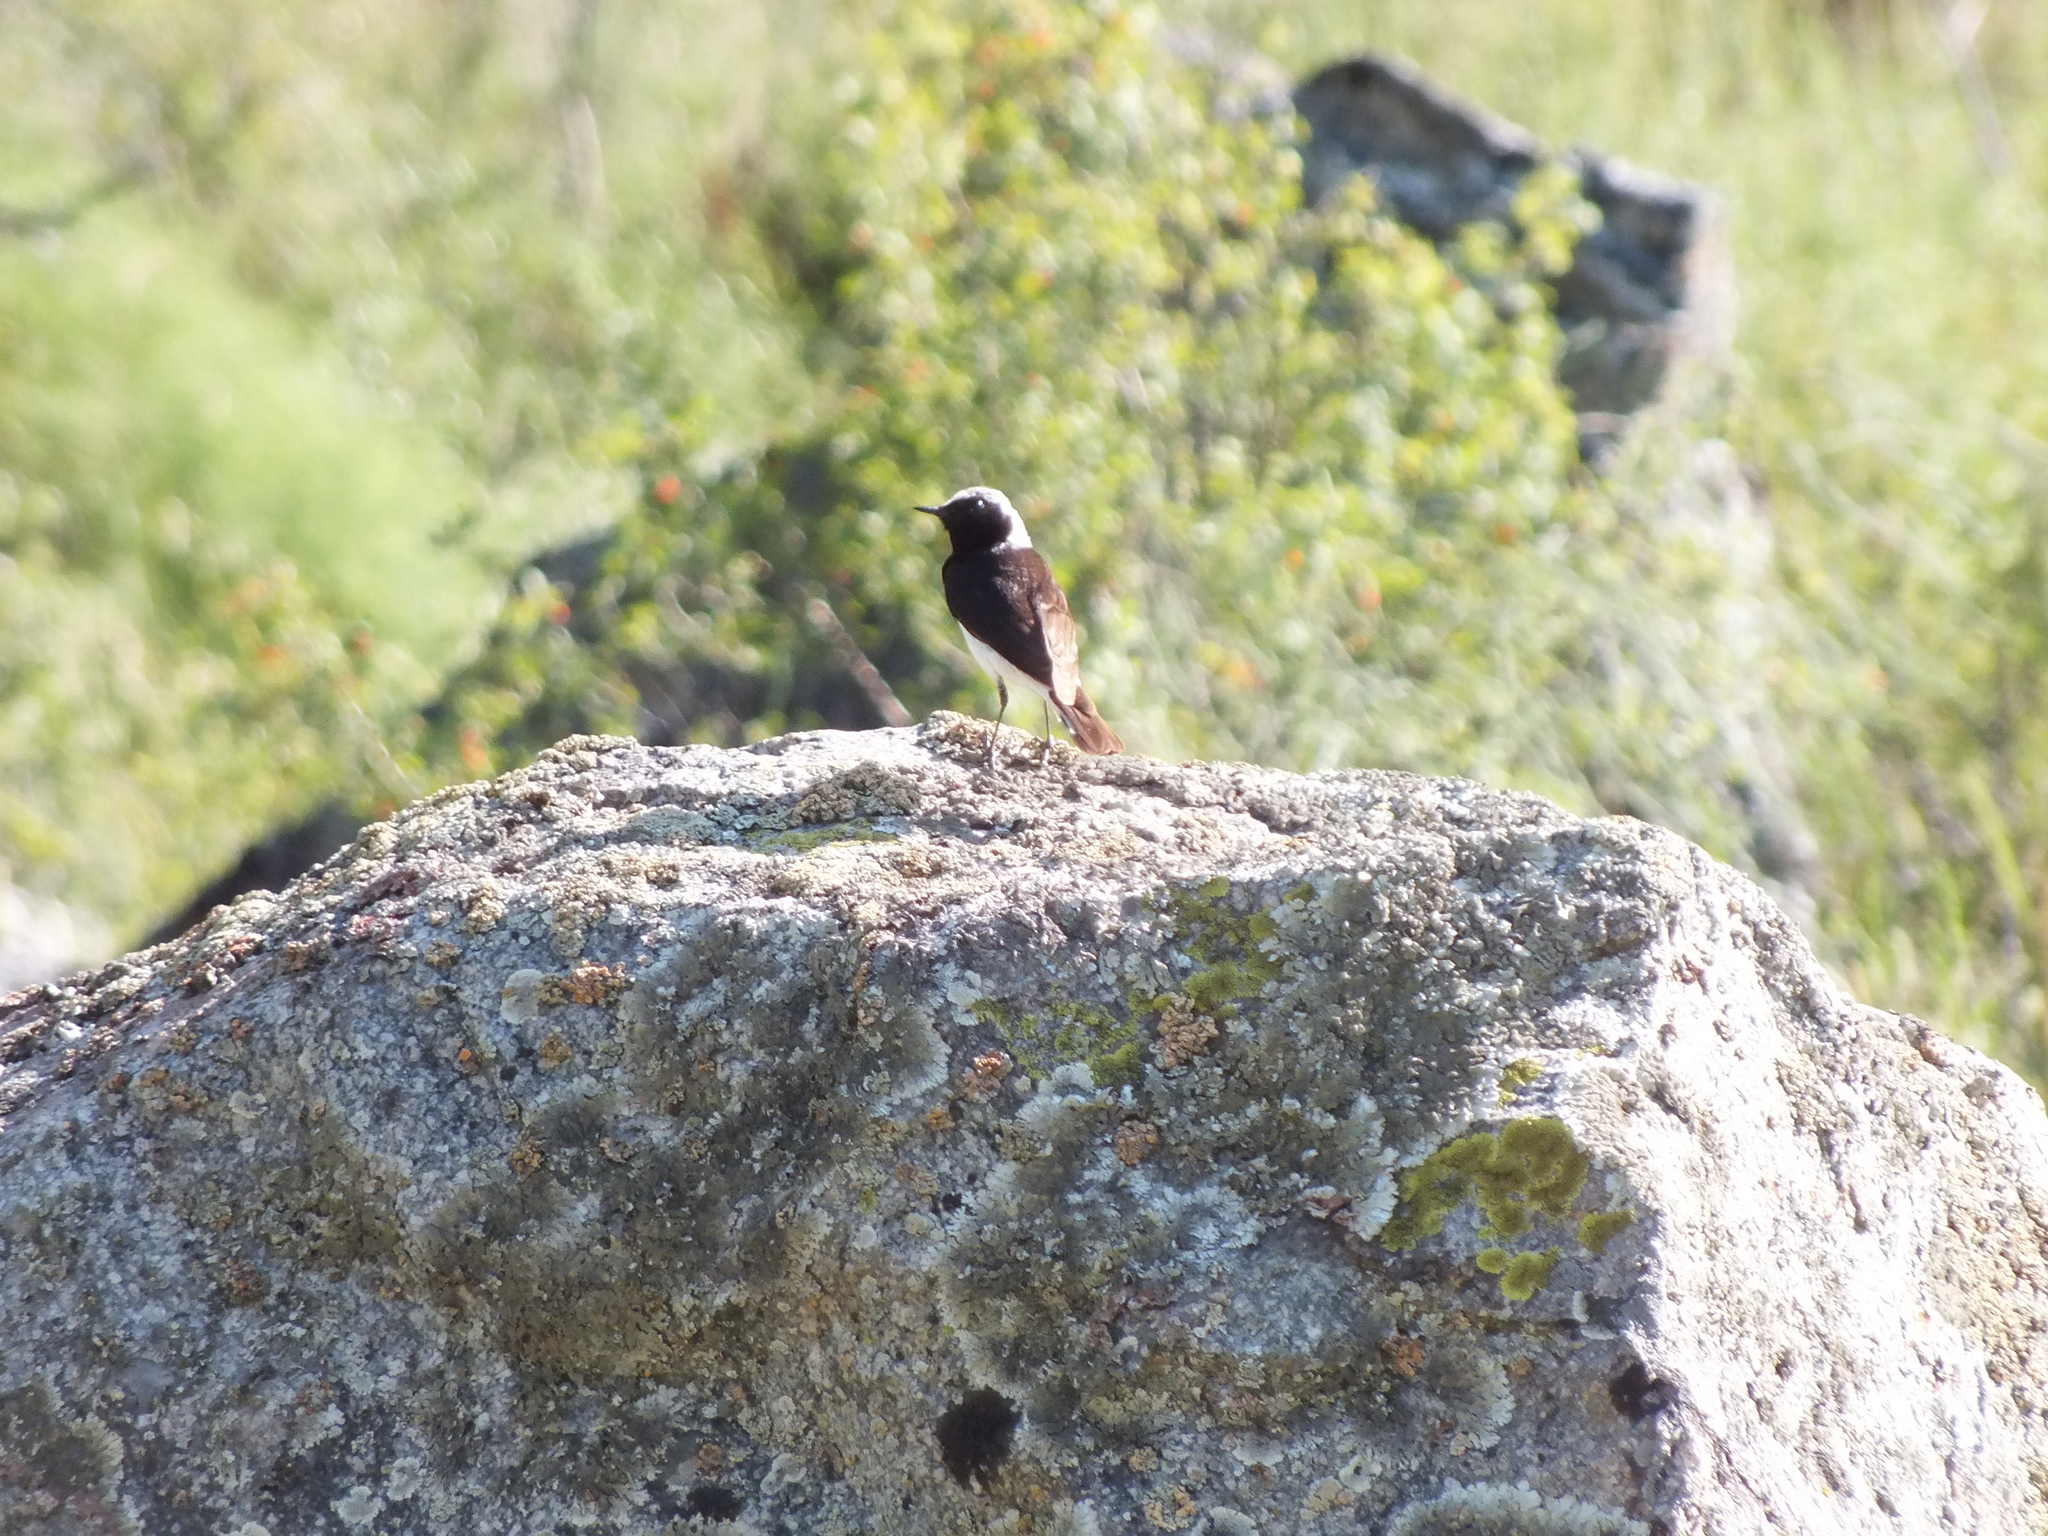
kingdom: Animalia
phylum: Chordata
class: Aves
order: Passeriformes
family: Muscicapidae
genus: Oenanthe
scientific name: Oenanthe pleschanka
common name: Pied wheatear
